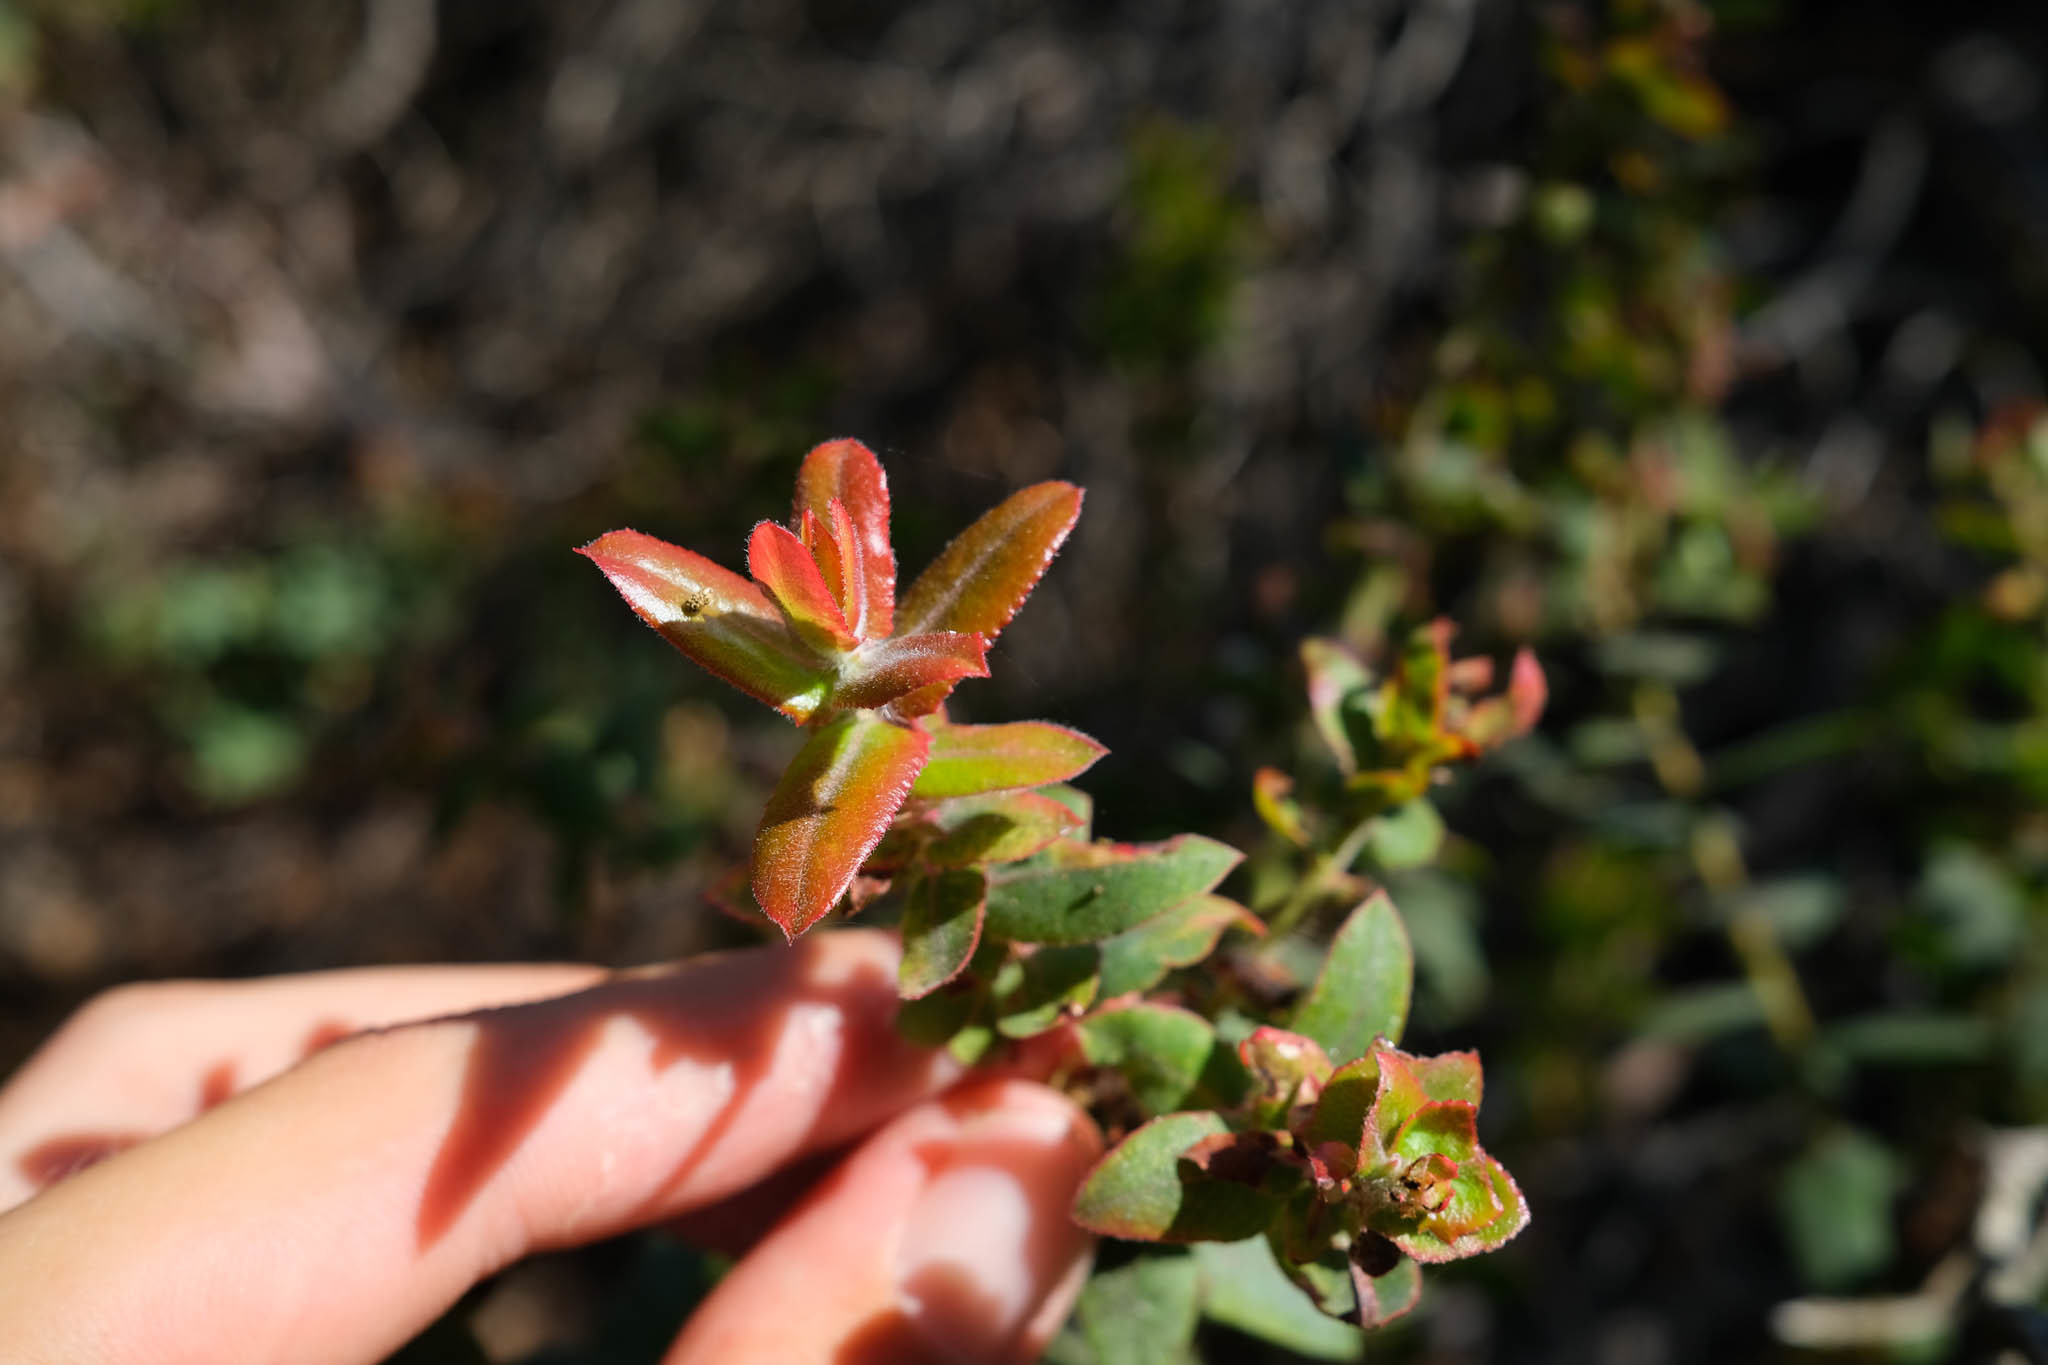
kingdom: Plantae
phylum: Tracheophyta
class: Magnoliopsida
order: Ericales
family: Ericaceae
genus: Arctostaphylos
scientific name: Arctostaphylos pajaroensis
